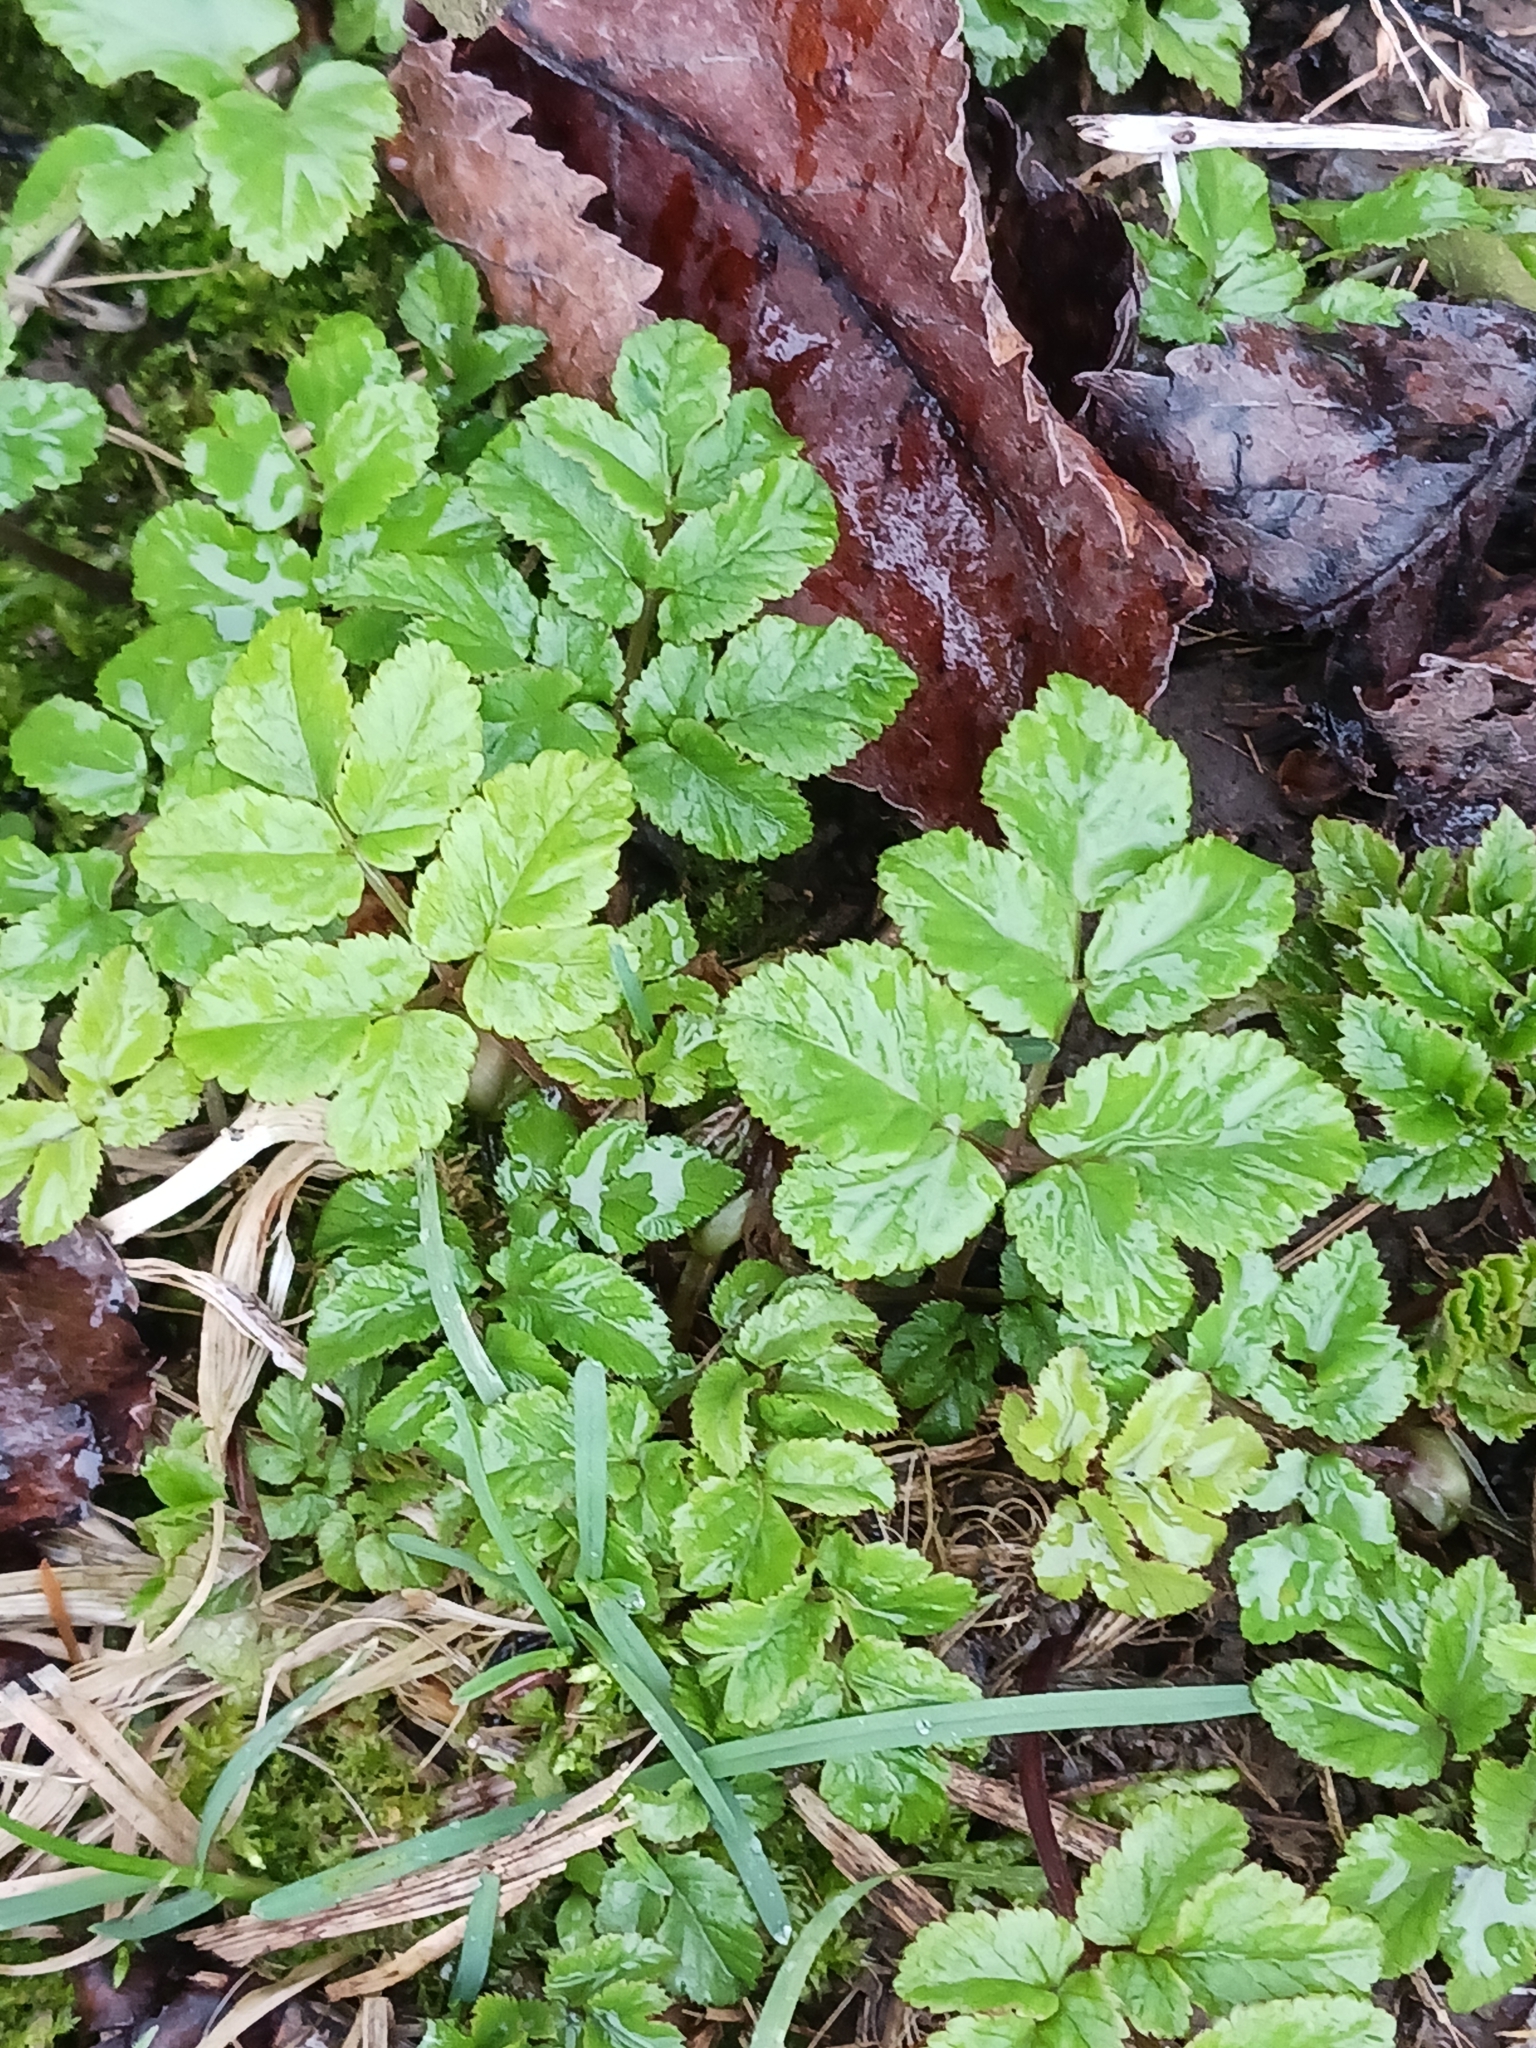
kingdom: Plantae
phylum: Tracheophyta
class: Magnoliopsida
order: Apiales
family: Apiaceae
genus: Aegopodium
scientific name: Aegopodium podagraria
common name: Ground-elder
